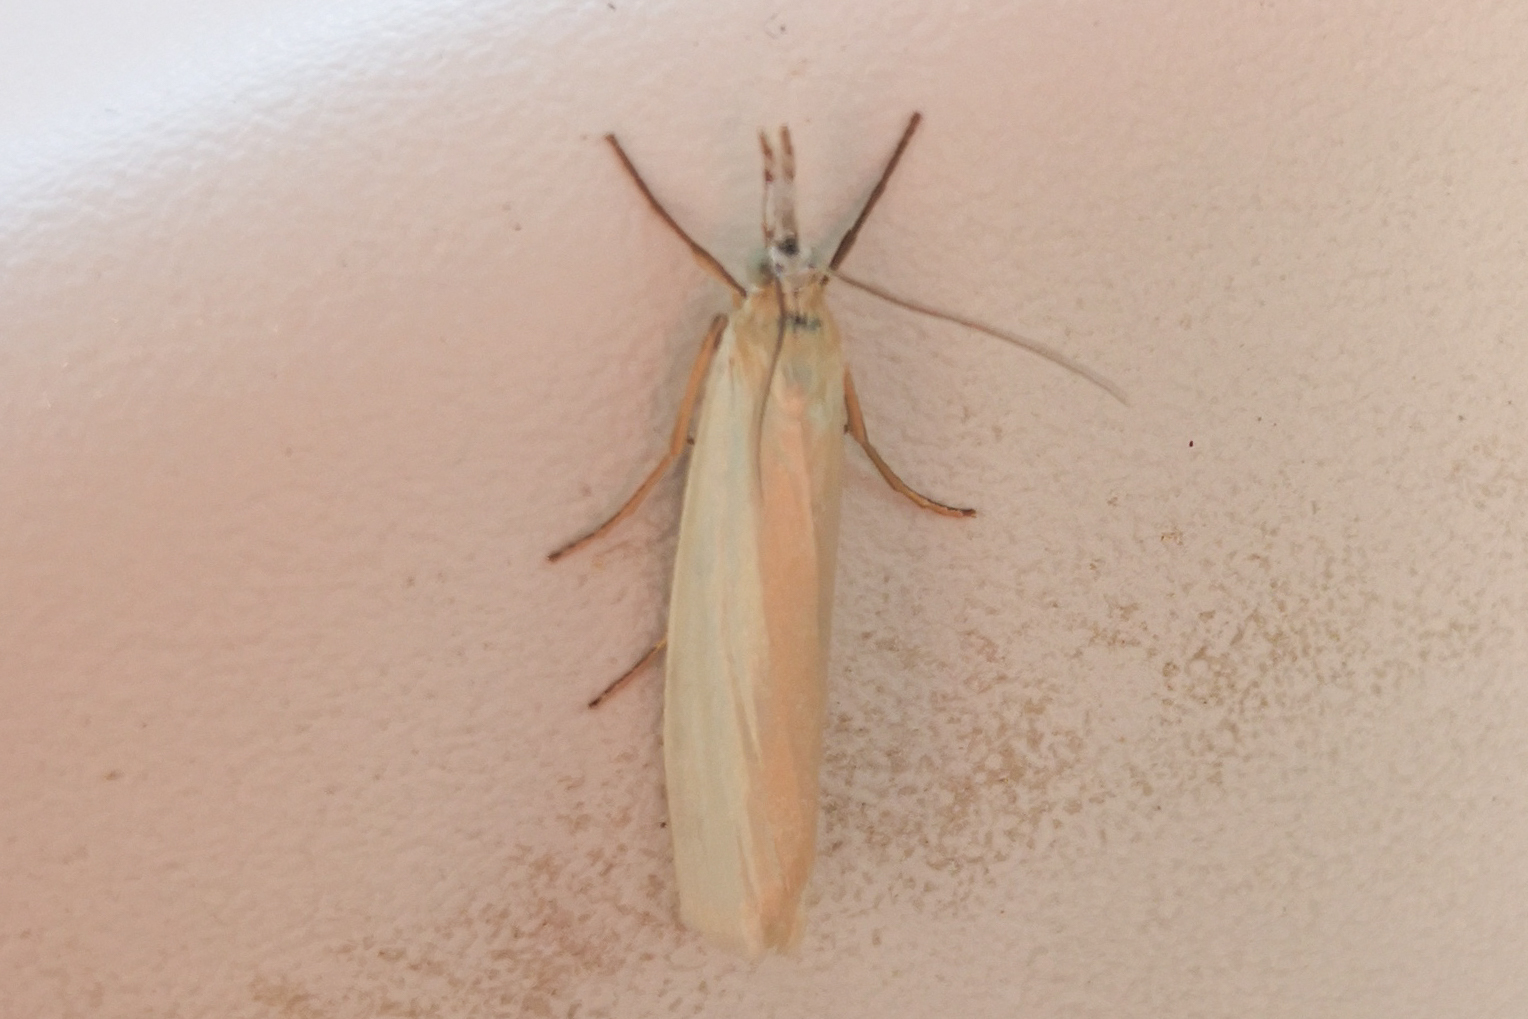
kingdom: Animalia
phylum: Arthropoda
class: Insecta
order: Lepidoptera
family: Crambidae
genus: Crambus
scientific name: Crambus perlellus
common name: Yellow satin veneer
